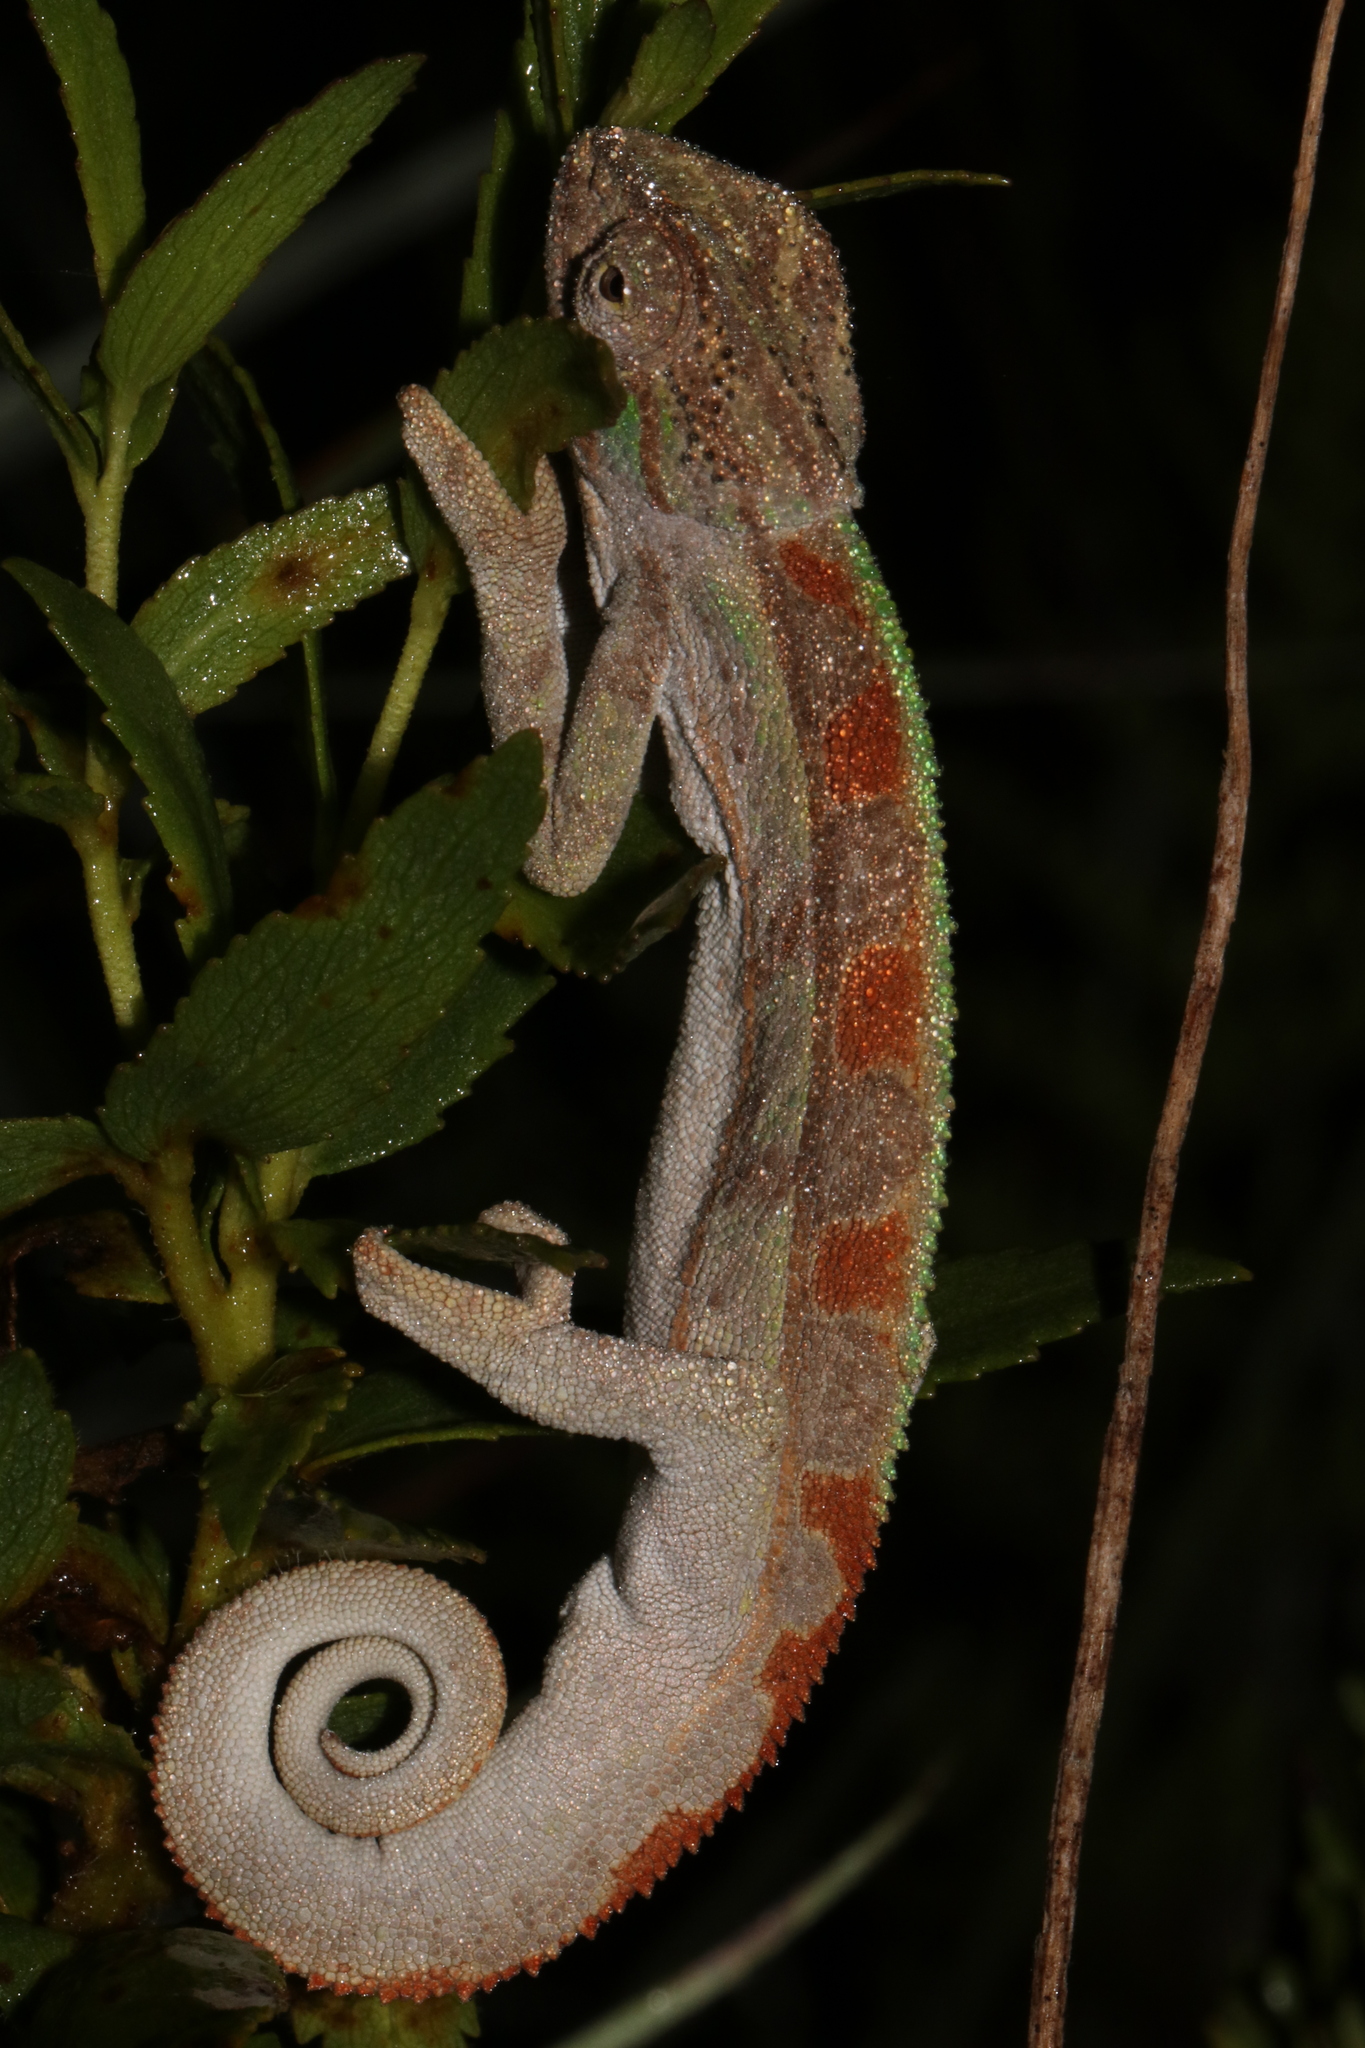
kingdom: Animalia
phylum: Chordata
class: Squamata
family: Chamaeleonidae
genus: Trioceros
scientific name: Trioceros goetzei
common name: Ilolo chameleon
